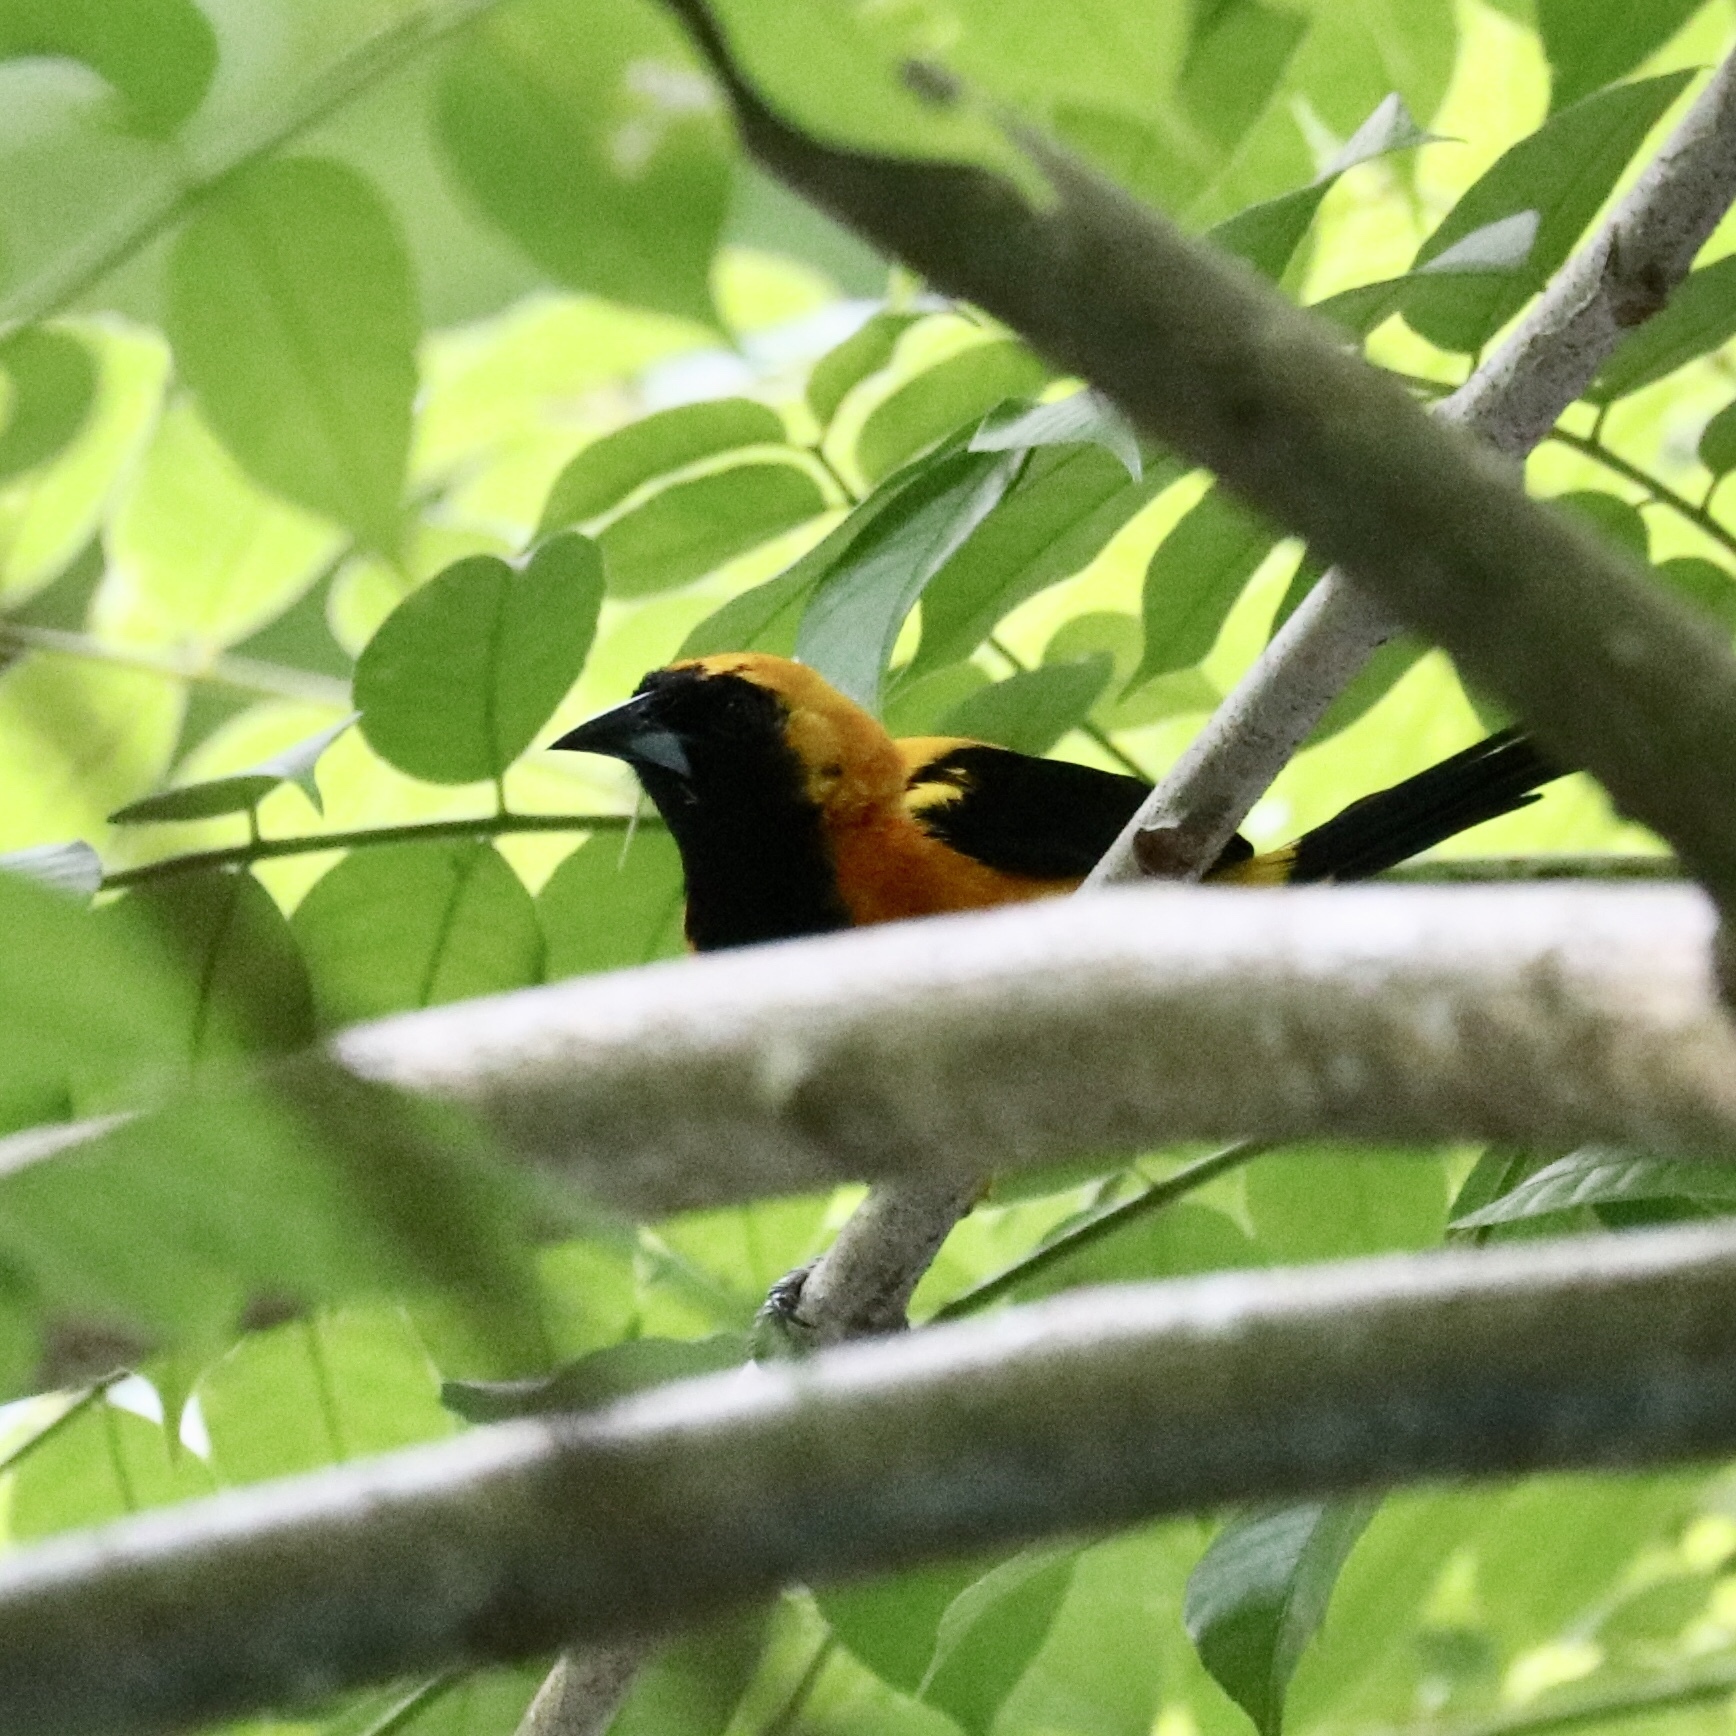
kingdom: Animalia
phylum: Chordata
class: Aves
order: Passeriformes
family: Icteridae
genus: Icterus
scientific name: Icterus chrysater
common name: Yellow-backed oriole
